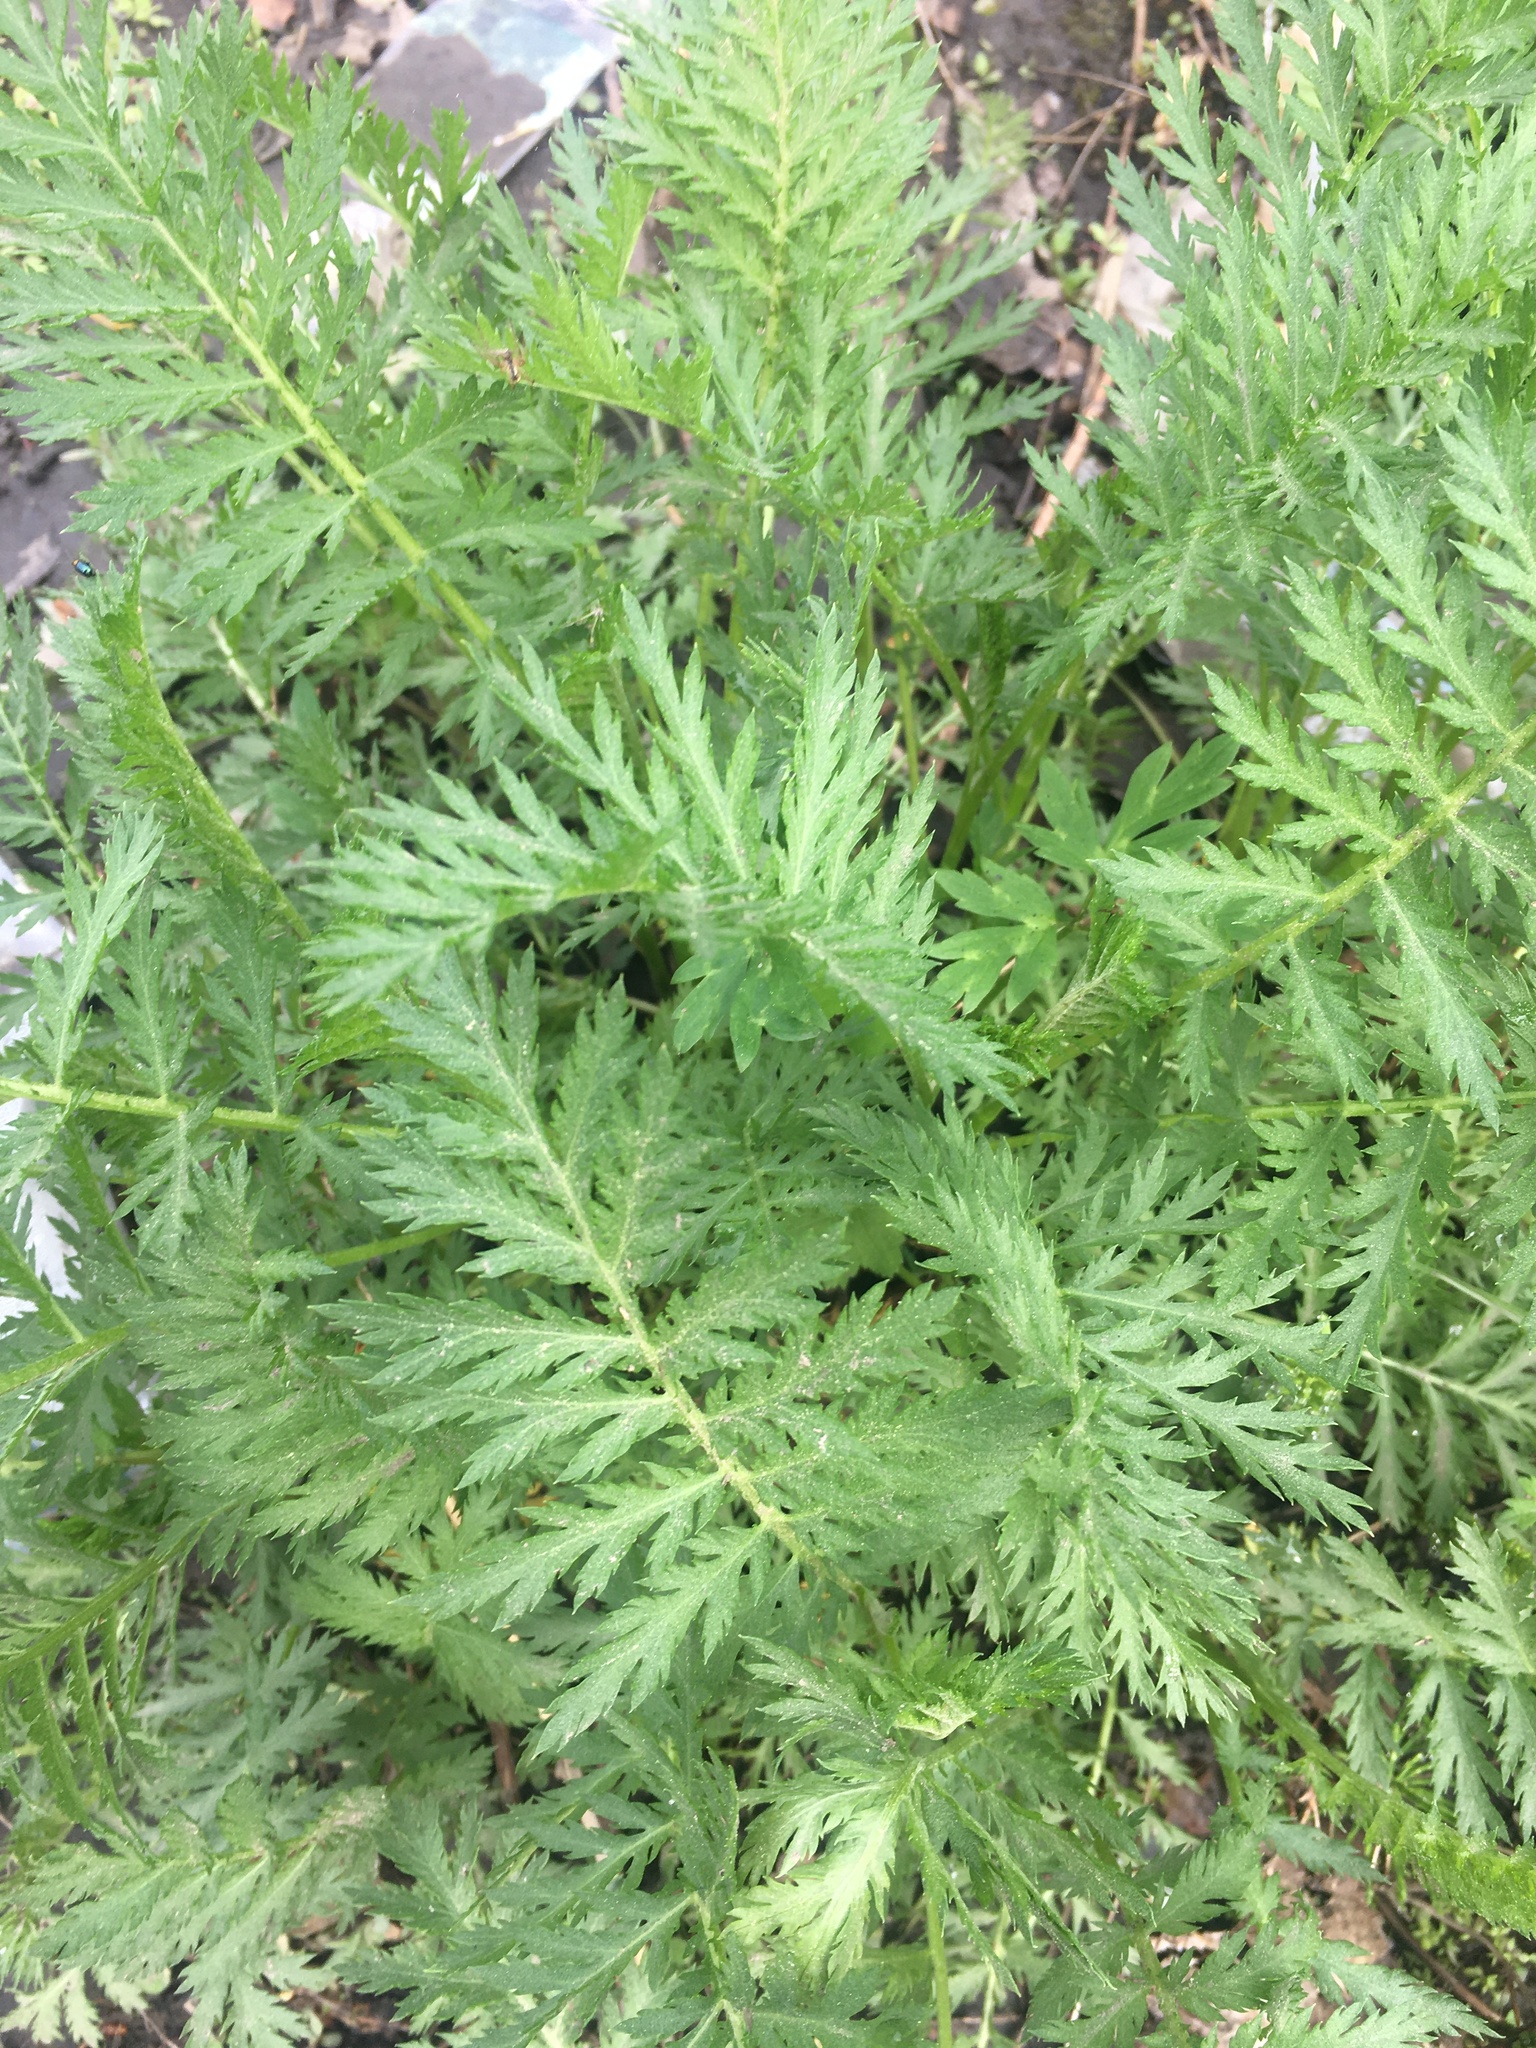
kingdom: Plantae
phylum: Tracheophyta
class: Magnoliopsida
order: Asterales
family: Asteraceae
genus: Tanacetum
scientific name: Tanacetum vulgare
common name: Common tansy
